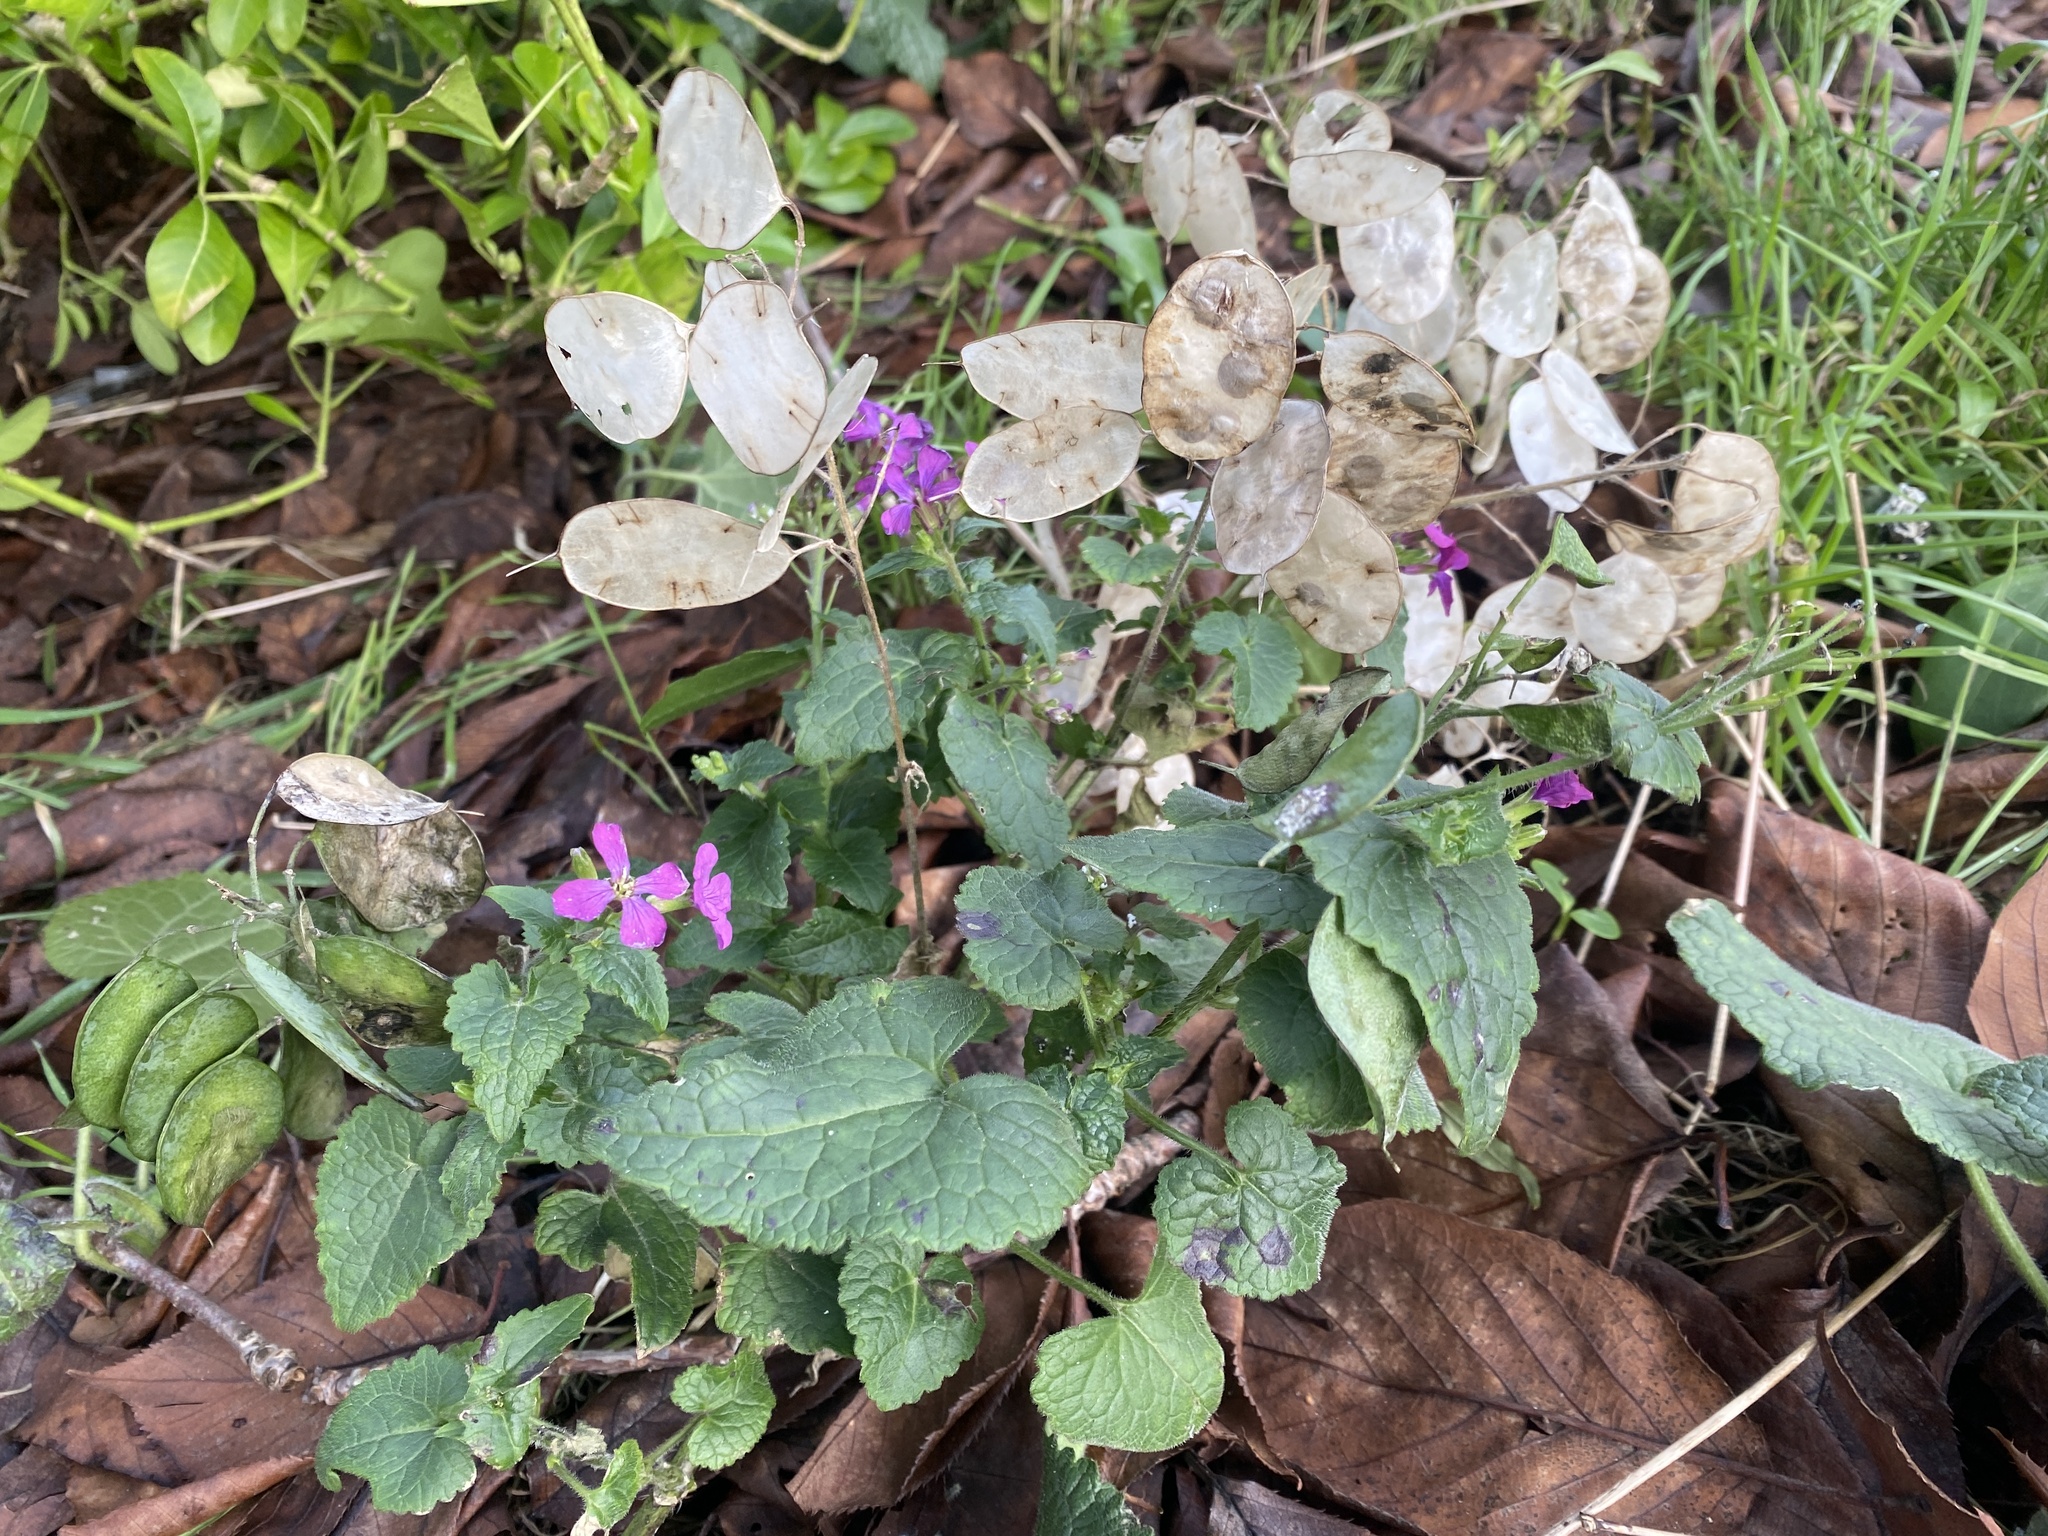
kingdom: Plantae
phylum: Tracheophyta
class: Magnoliopsida
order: Brassicales
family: Brassicaceae
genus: Lunaria
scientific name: Lunaria annua
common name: Honesty
